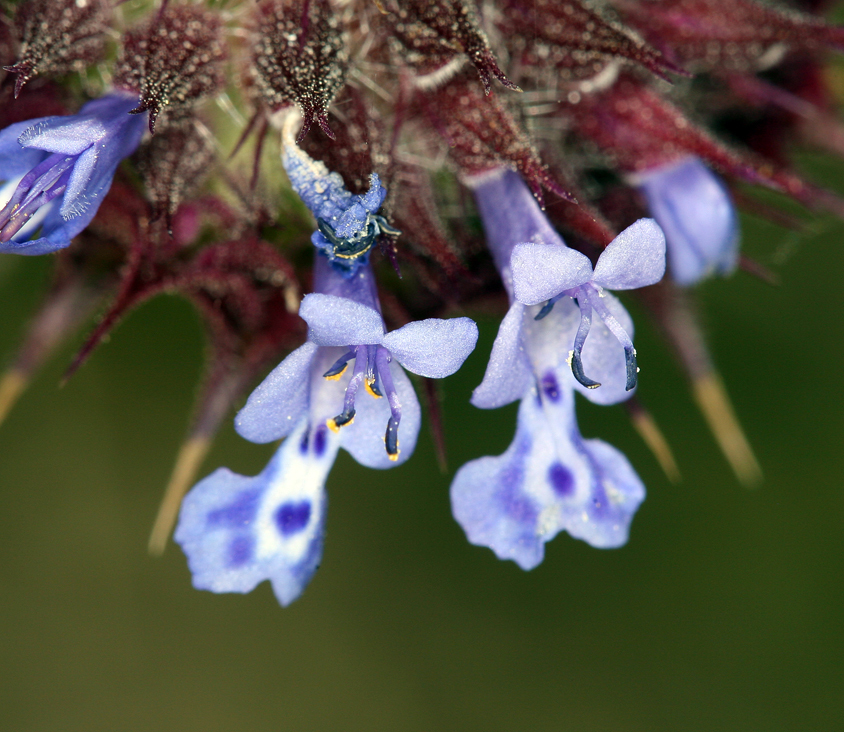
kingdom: Plantae
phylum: Tracheophyta
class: Magnoliopsida
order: Lamiales
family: Lamiaceae
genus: Salvia
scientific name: Salvia columbariae
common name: Chia
